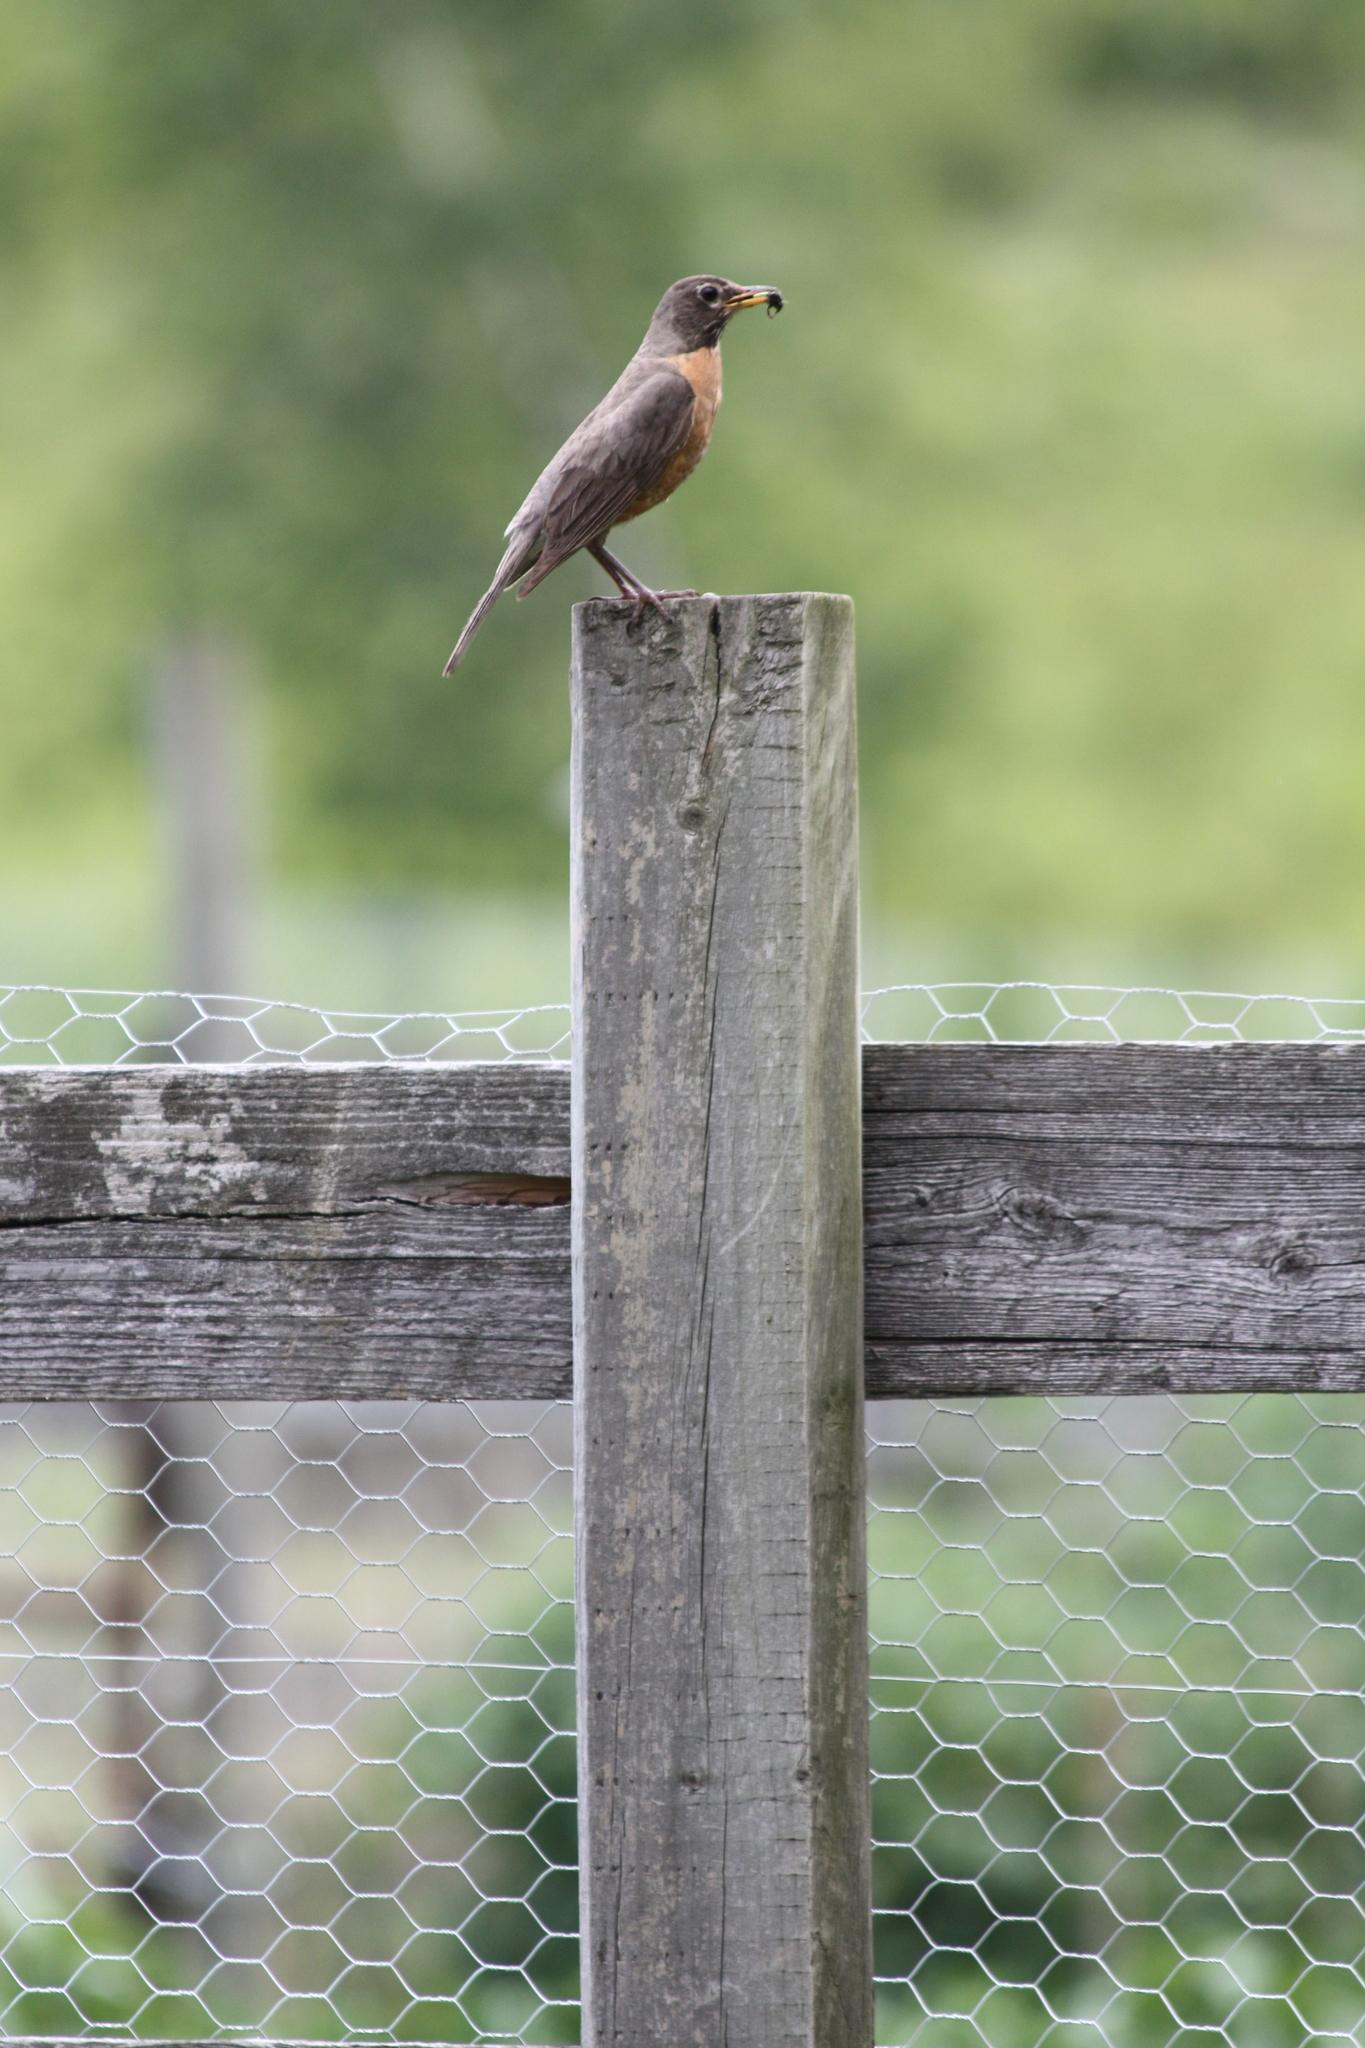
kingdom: Animalia
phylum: Chordata
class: Aves
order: Passeriformes
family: Turdidae
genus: Turdus
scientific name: Turdus migratorius
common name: American robin
